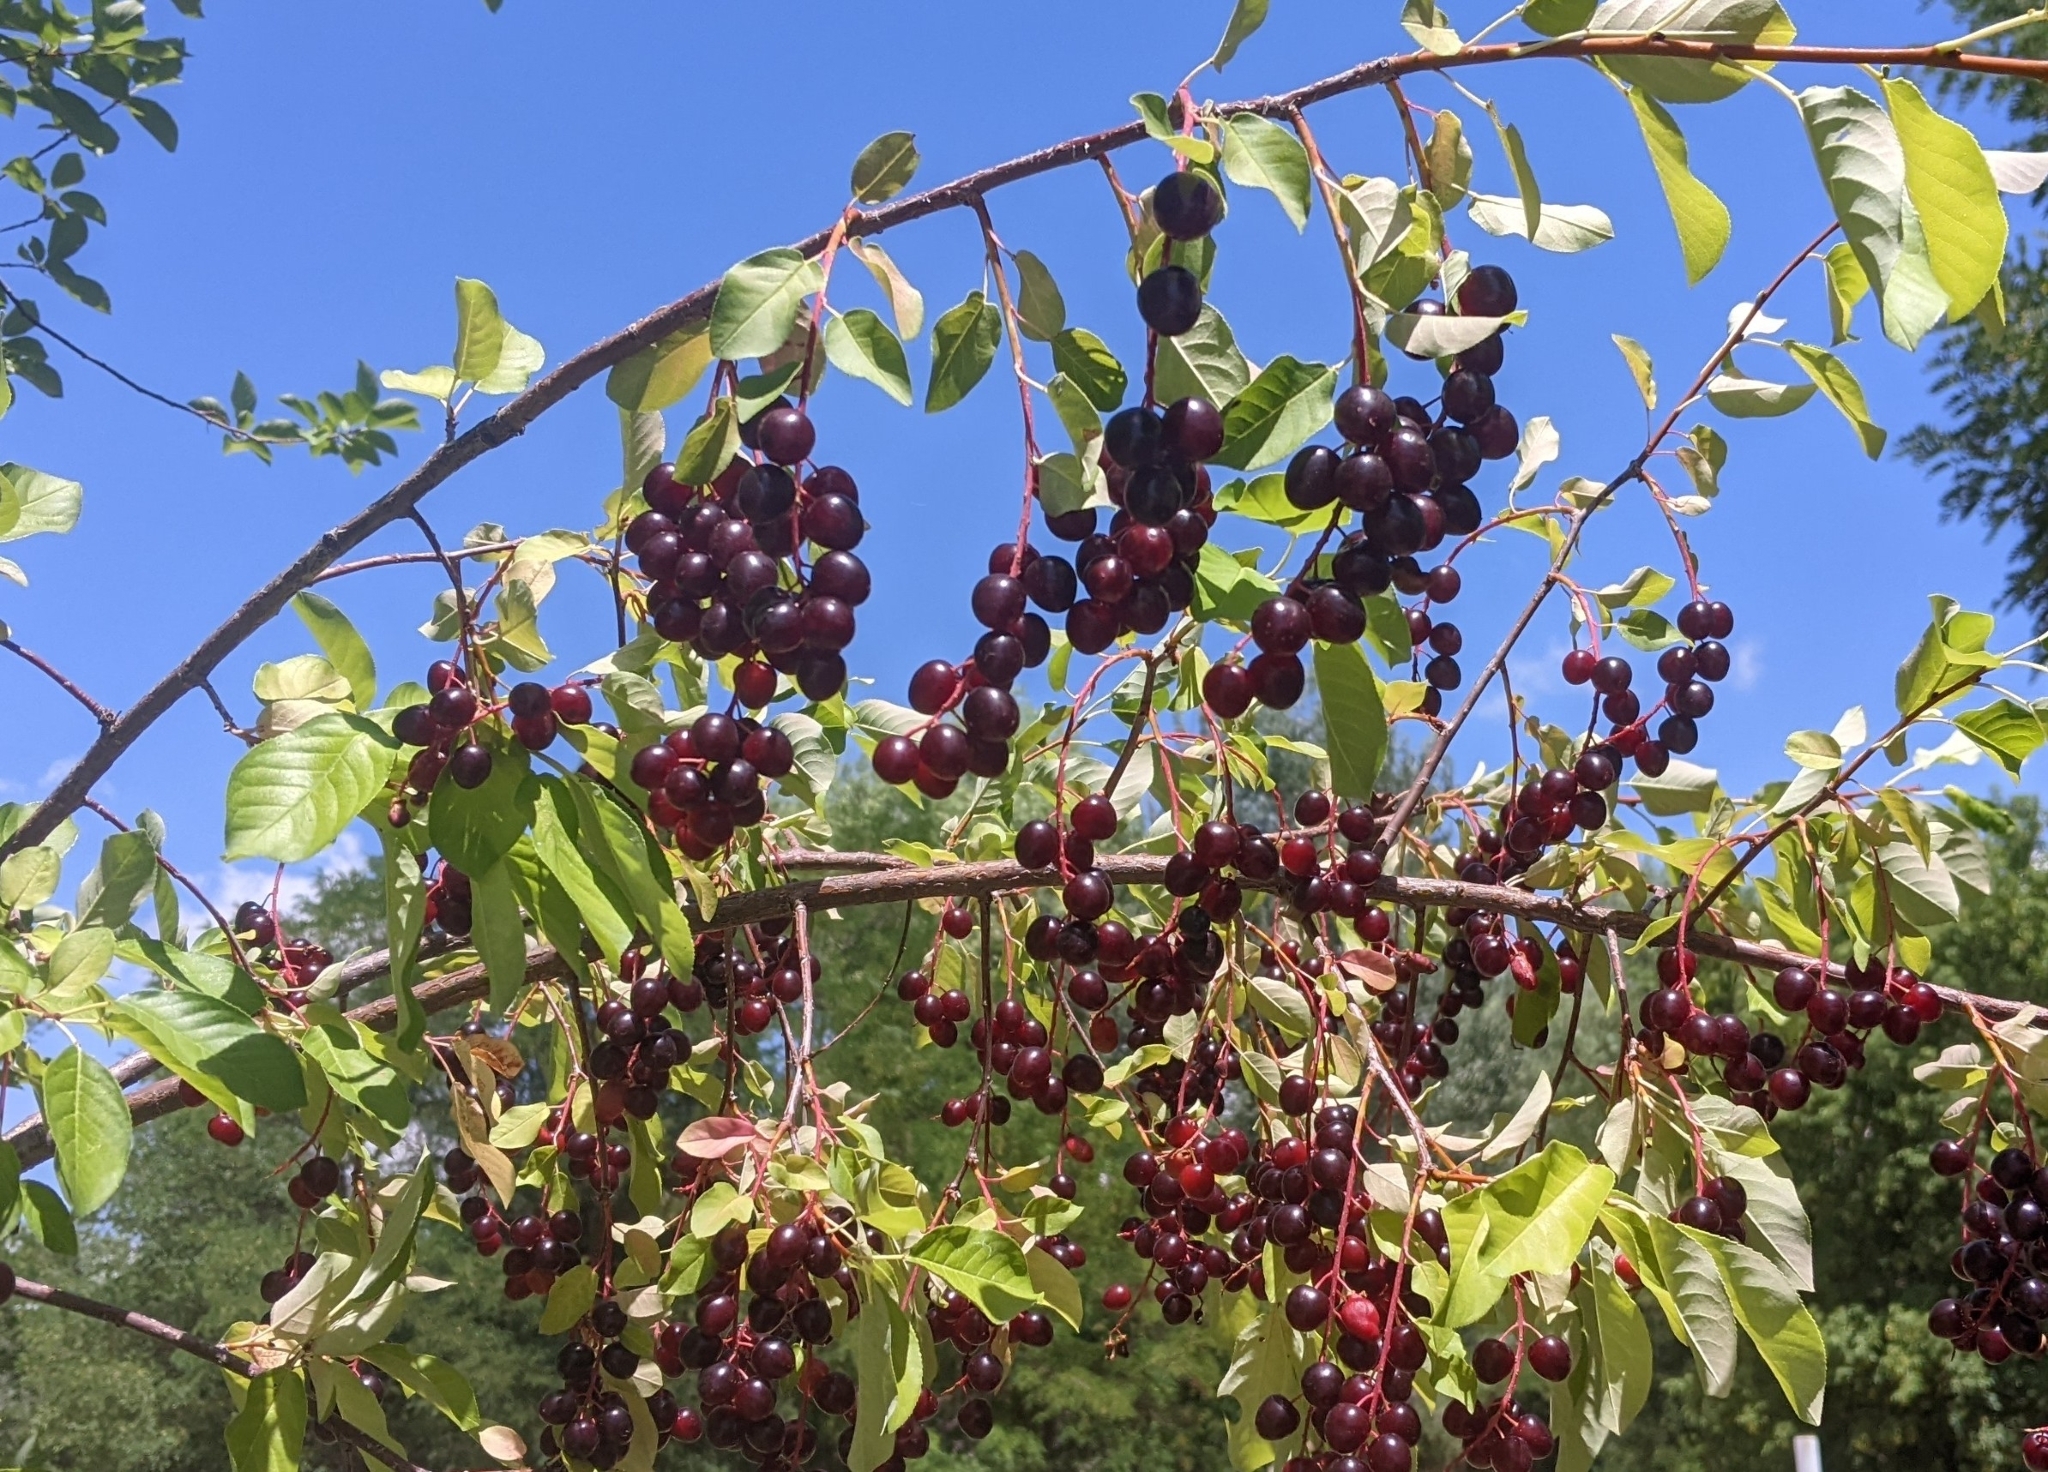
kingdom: Plantae
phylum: Tracheophyta
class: Magnoliopsida
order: Rosales
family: Rosaceae
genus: Prunus
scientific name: Prunus virginiana
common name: Chokecherry
